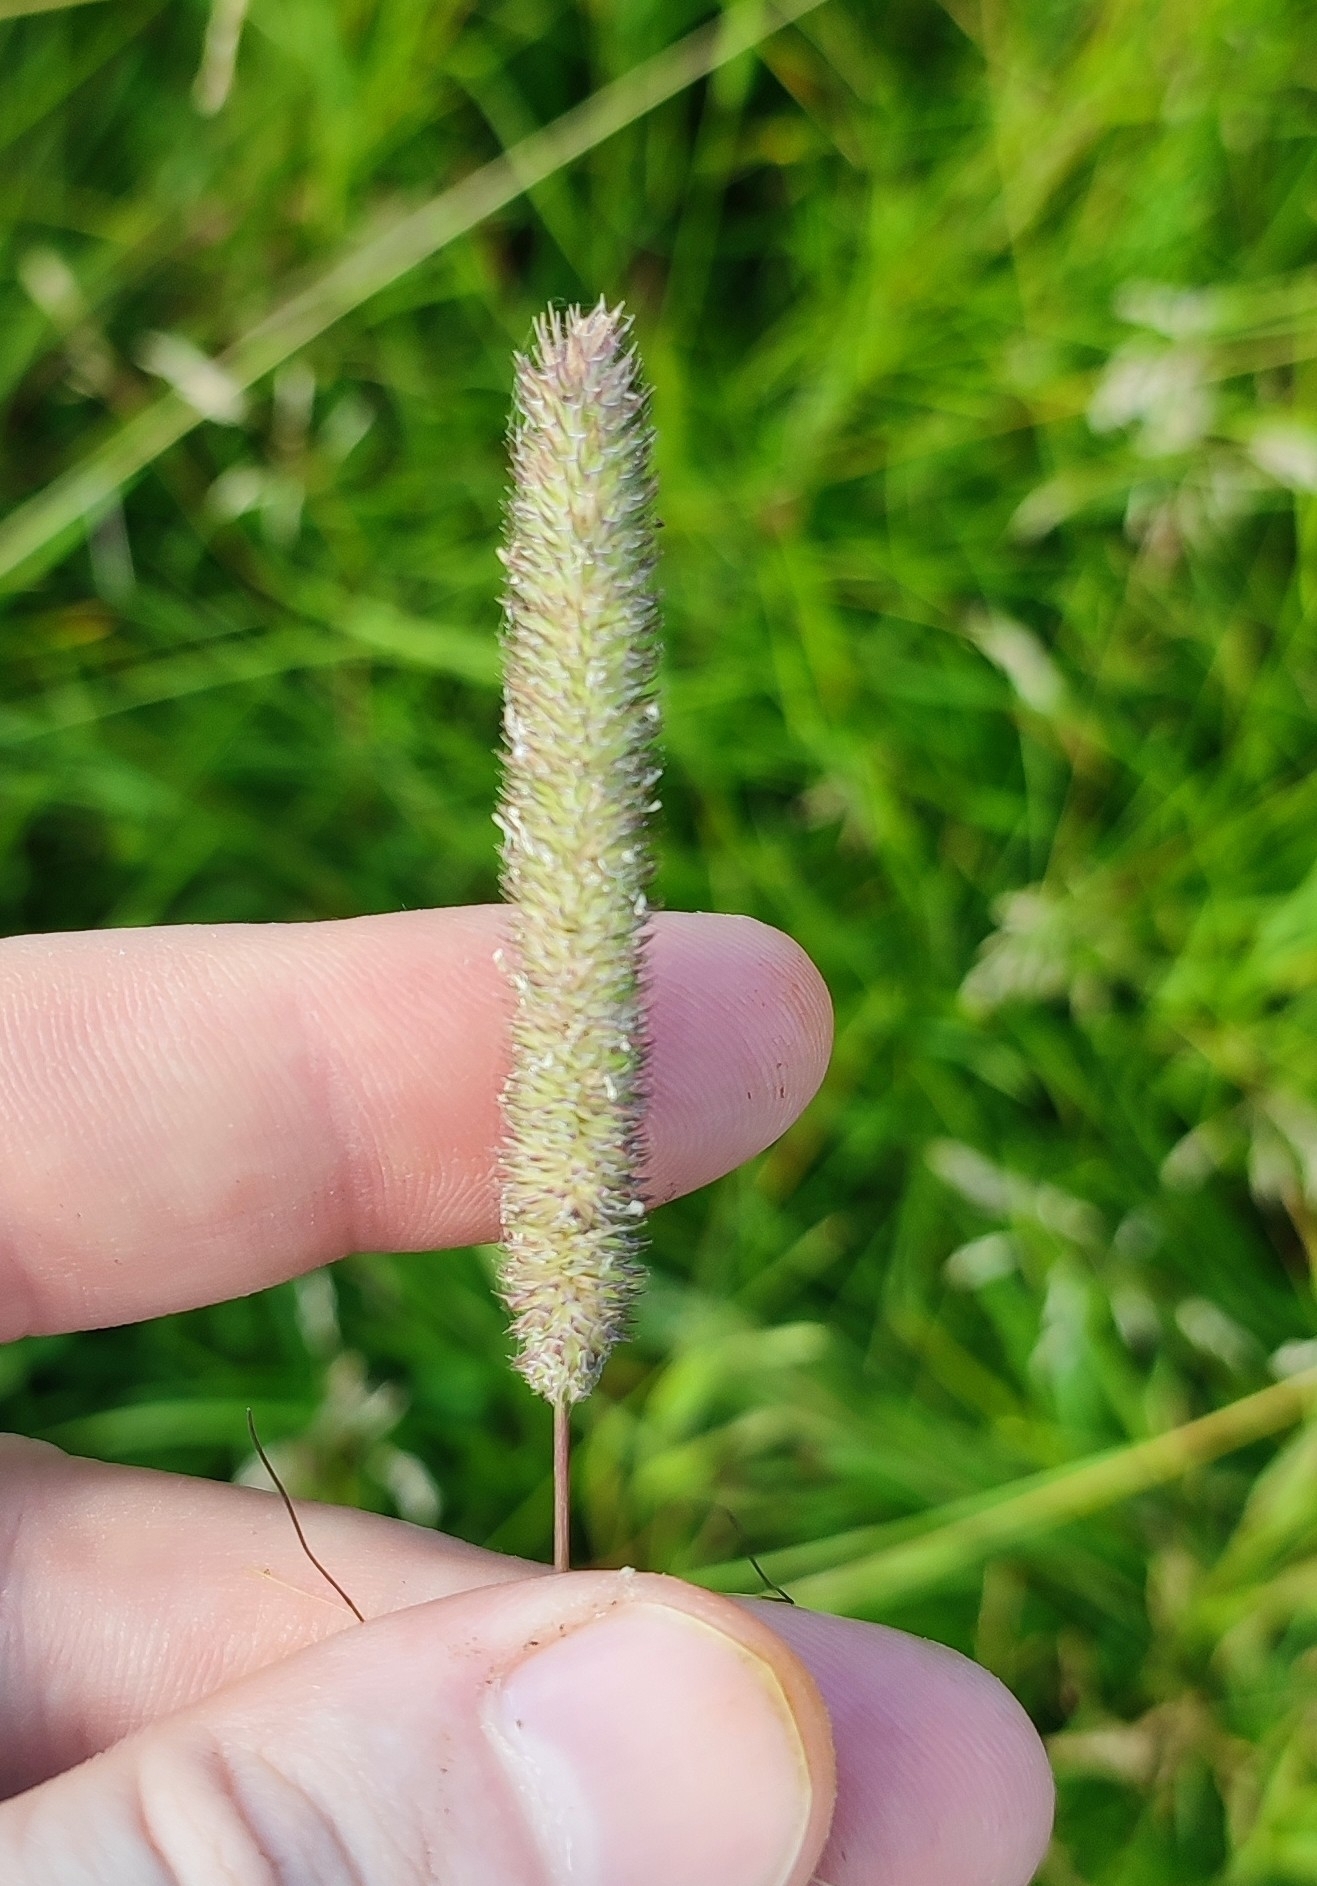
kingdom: Plantae
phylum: Tracheophyta
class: Liliopsida
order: Poales
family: Poaceae
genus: Phleum
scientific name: Phleum pratense
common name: Timothy grass
